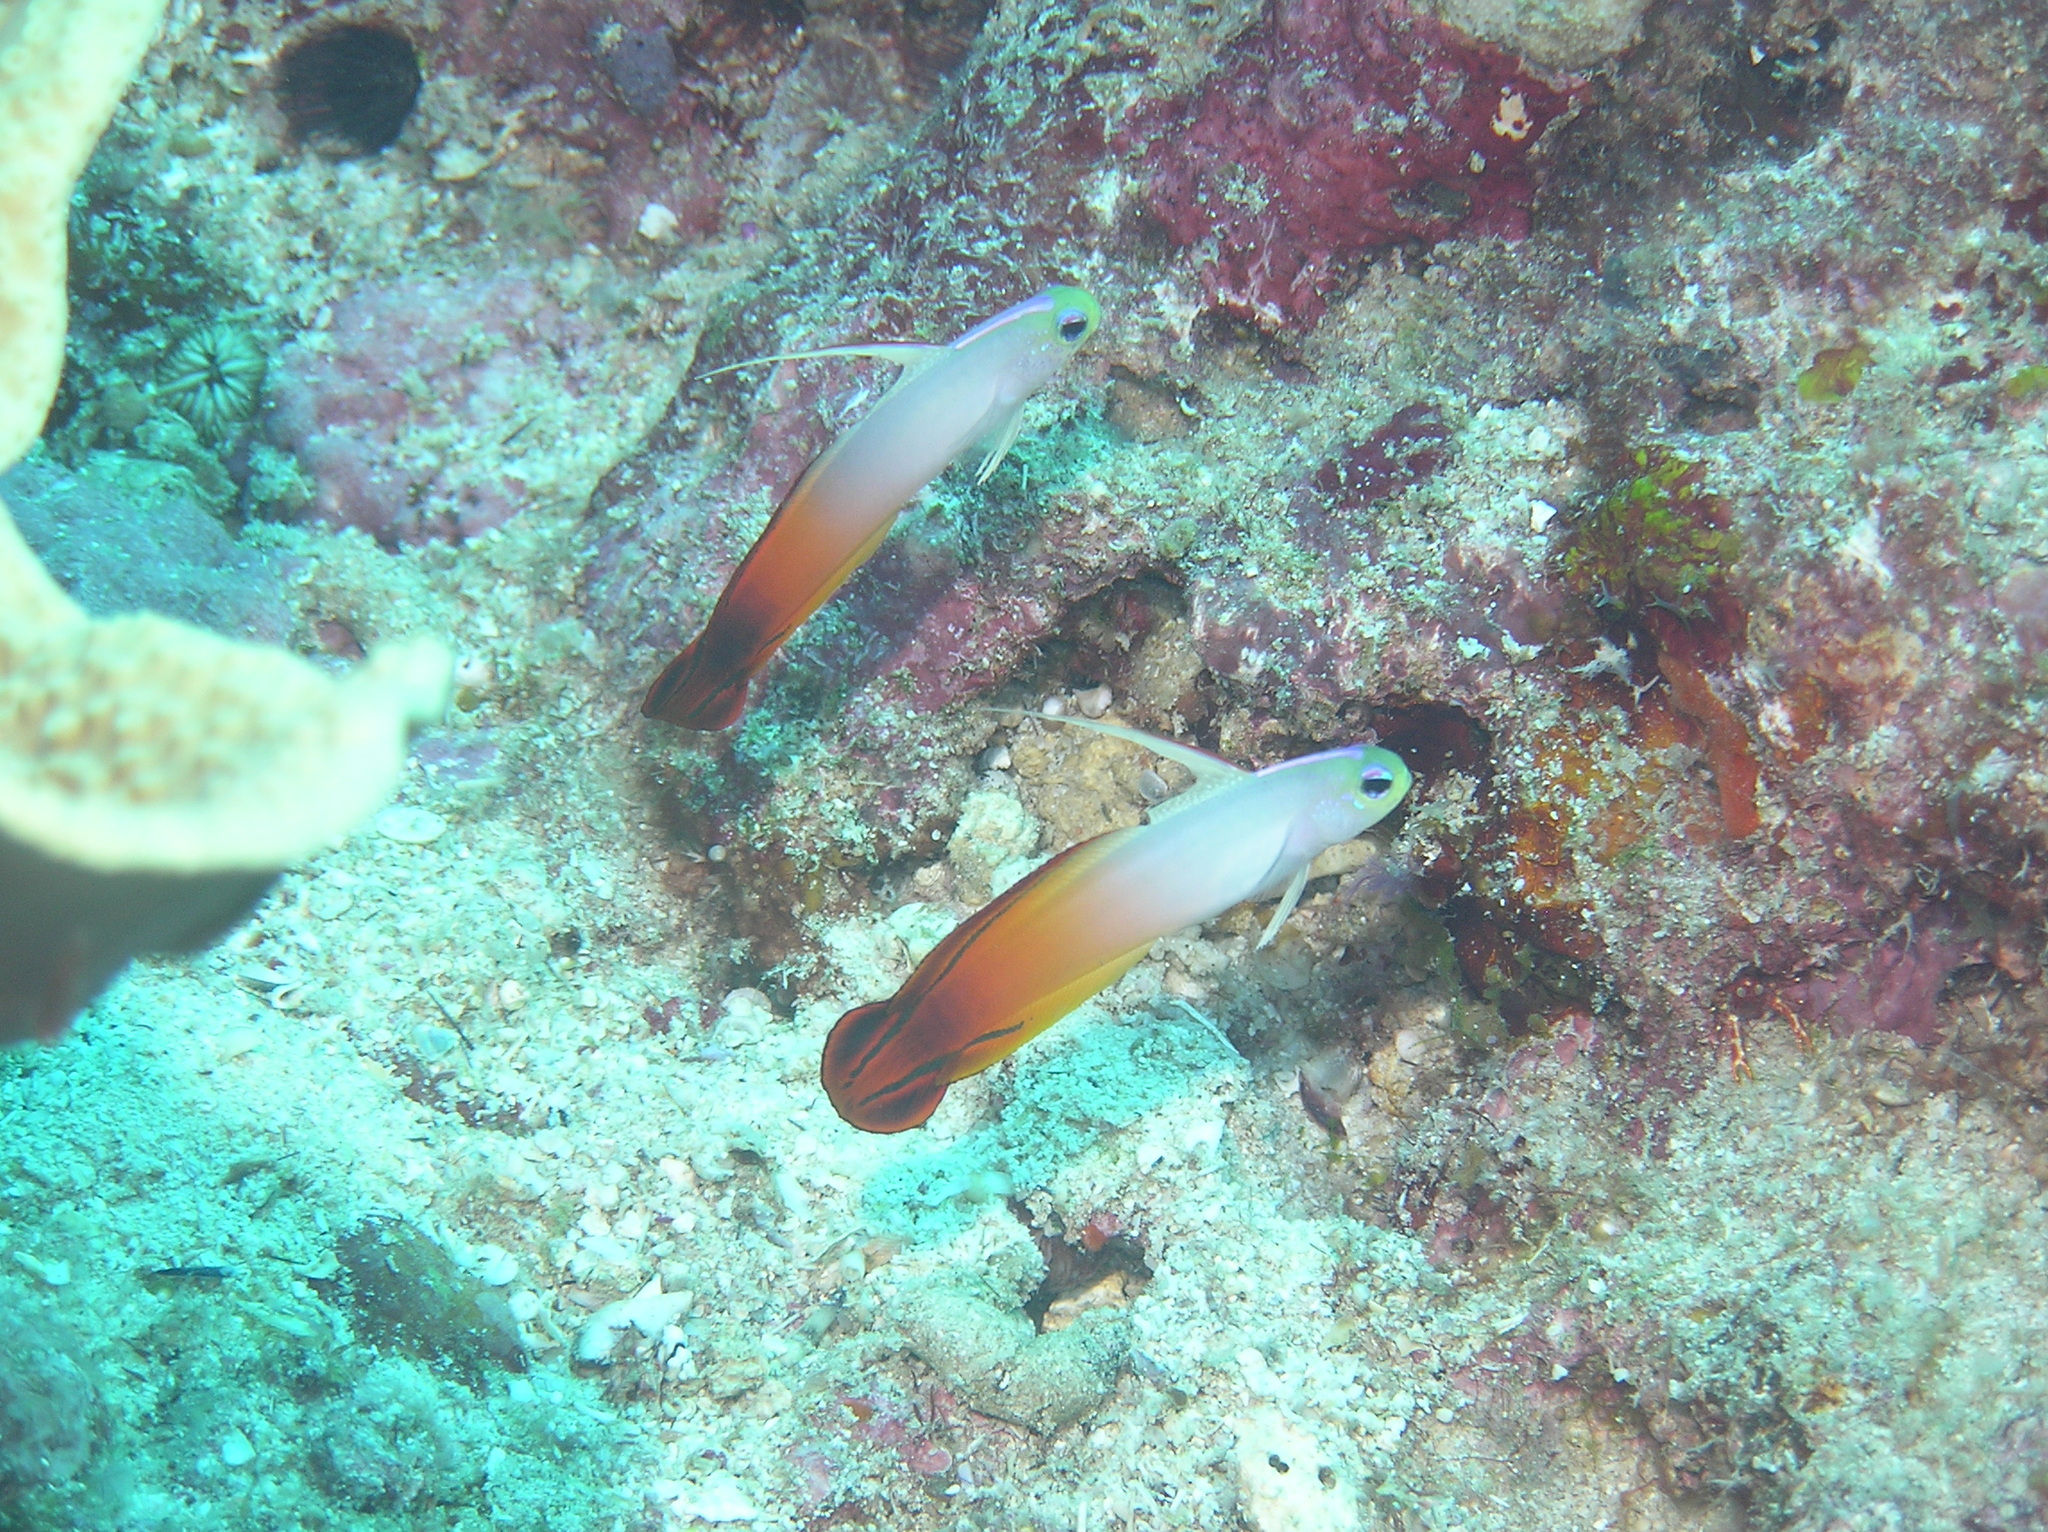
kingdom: Animalia
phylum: Chordata
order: Perciformes
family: Microdesmidae
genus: Nemateleotris
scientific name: Nemateleotris magnifica
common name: Fire goby
